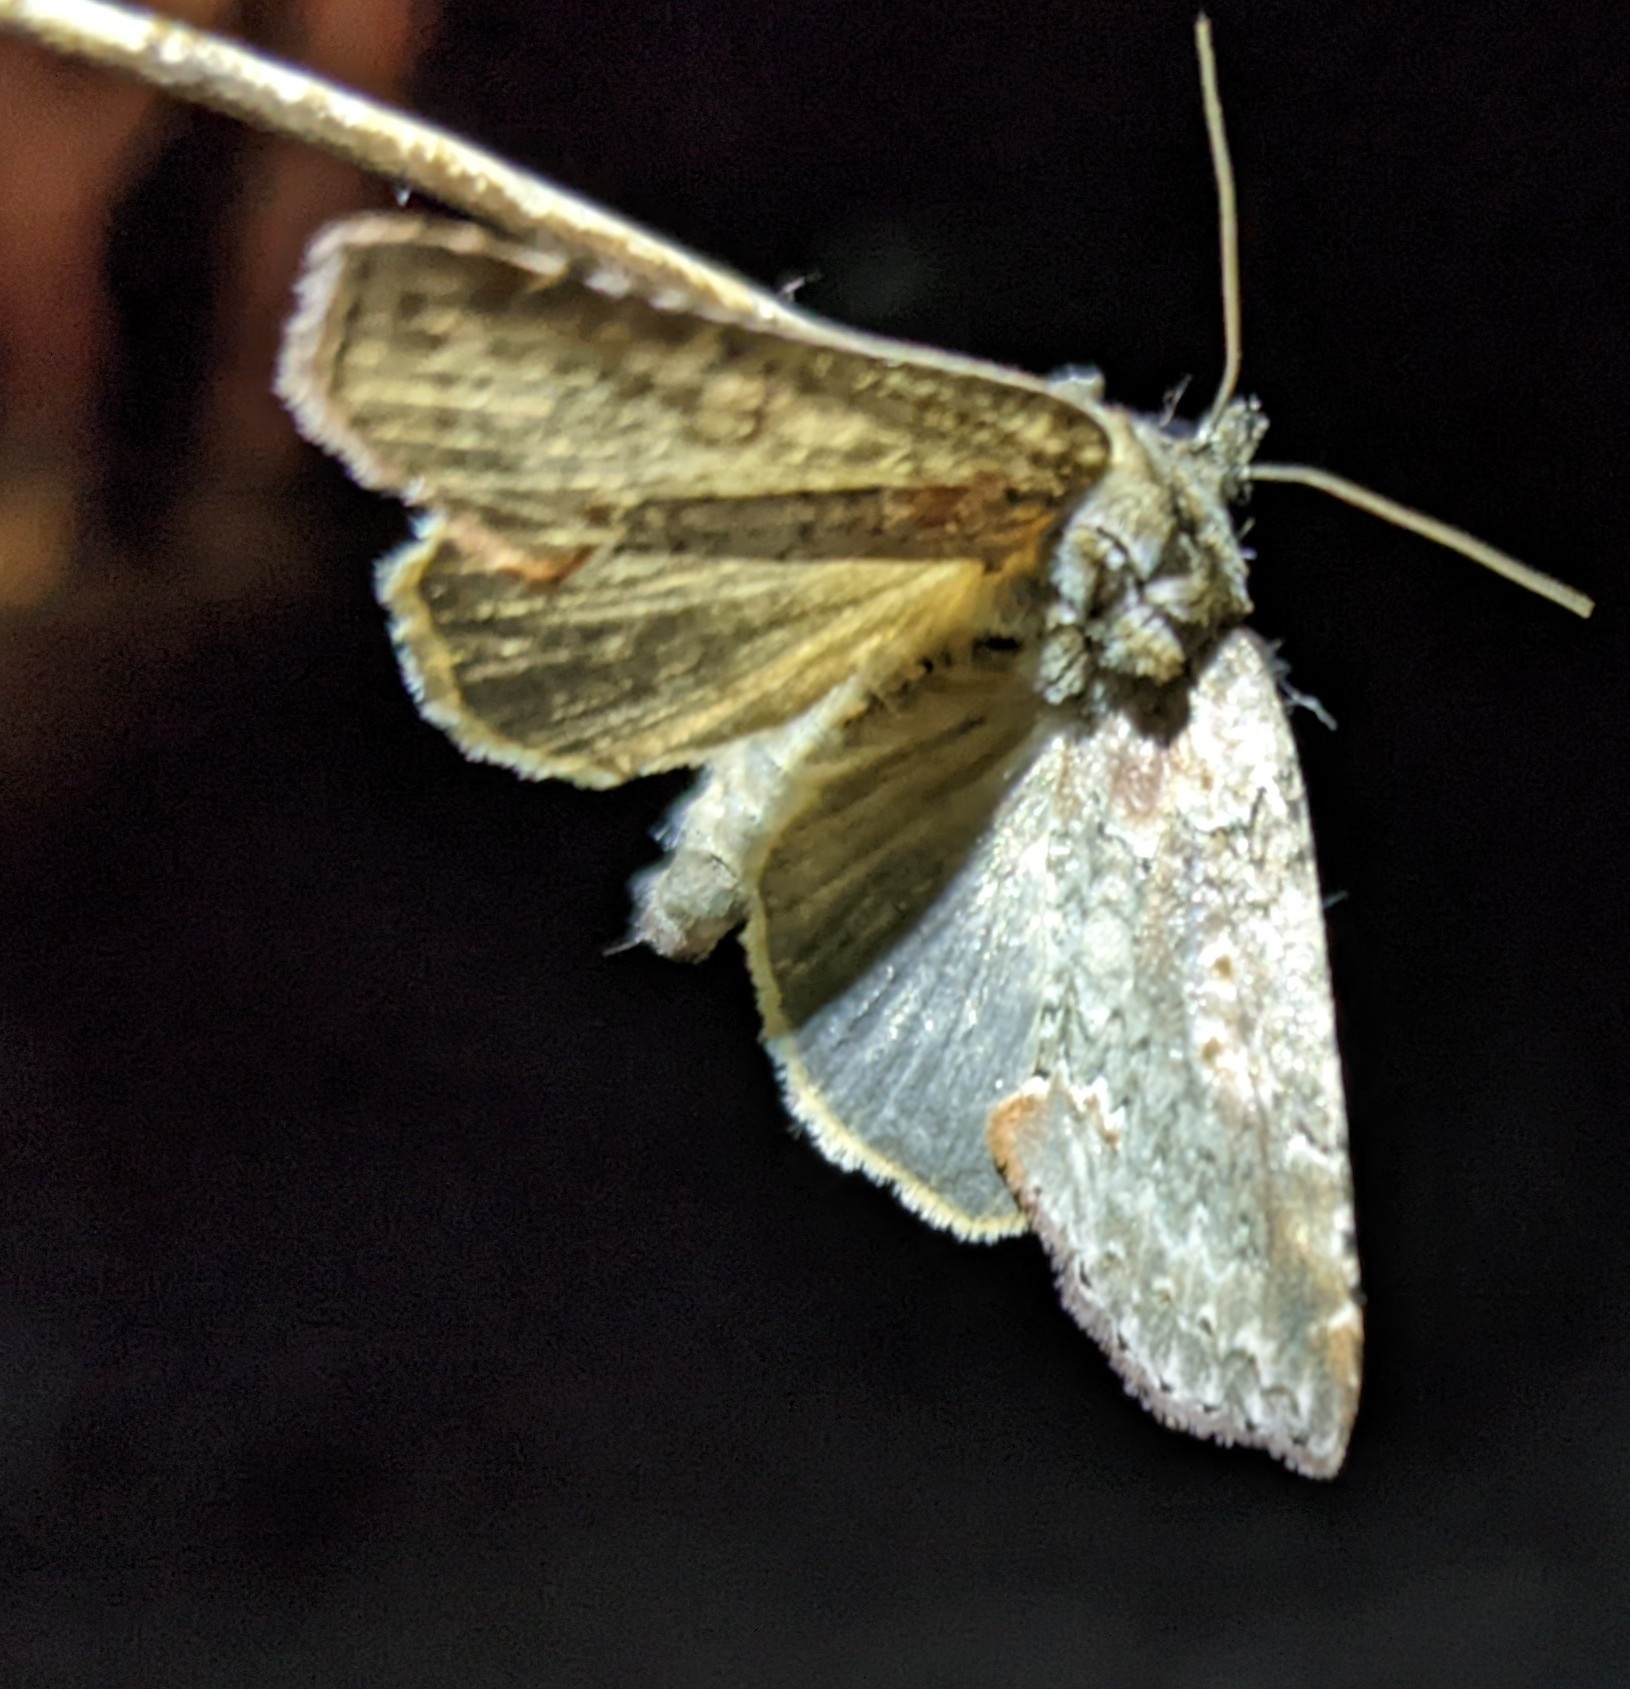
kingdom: Animalia
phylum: Arthropoda
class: Insecta
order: Lepidoptera
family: Drepanidae
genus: Pseudothyatira
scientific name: Pseudothyatira cymatophoroides
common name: Tufted thyatirid moth
